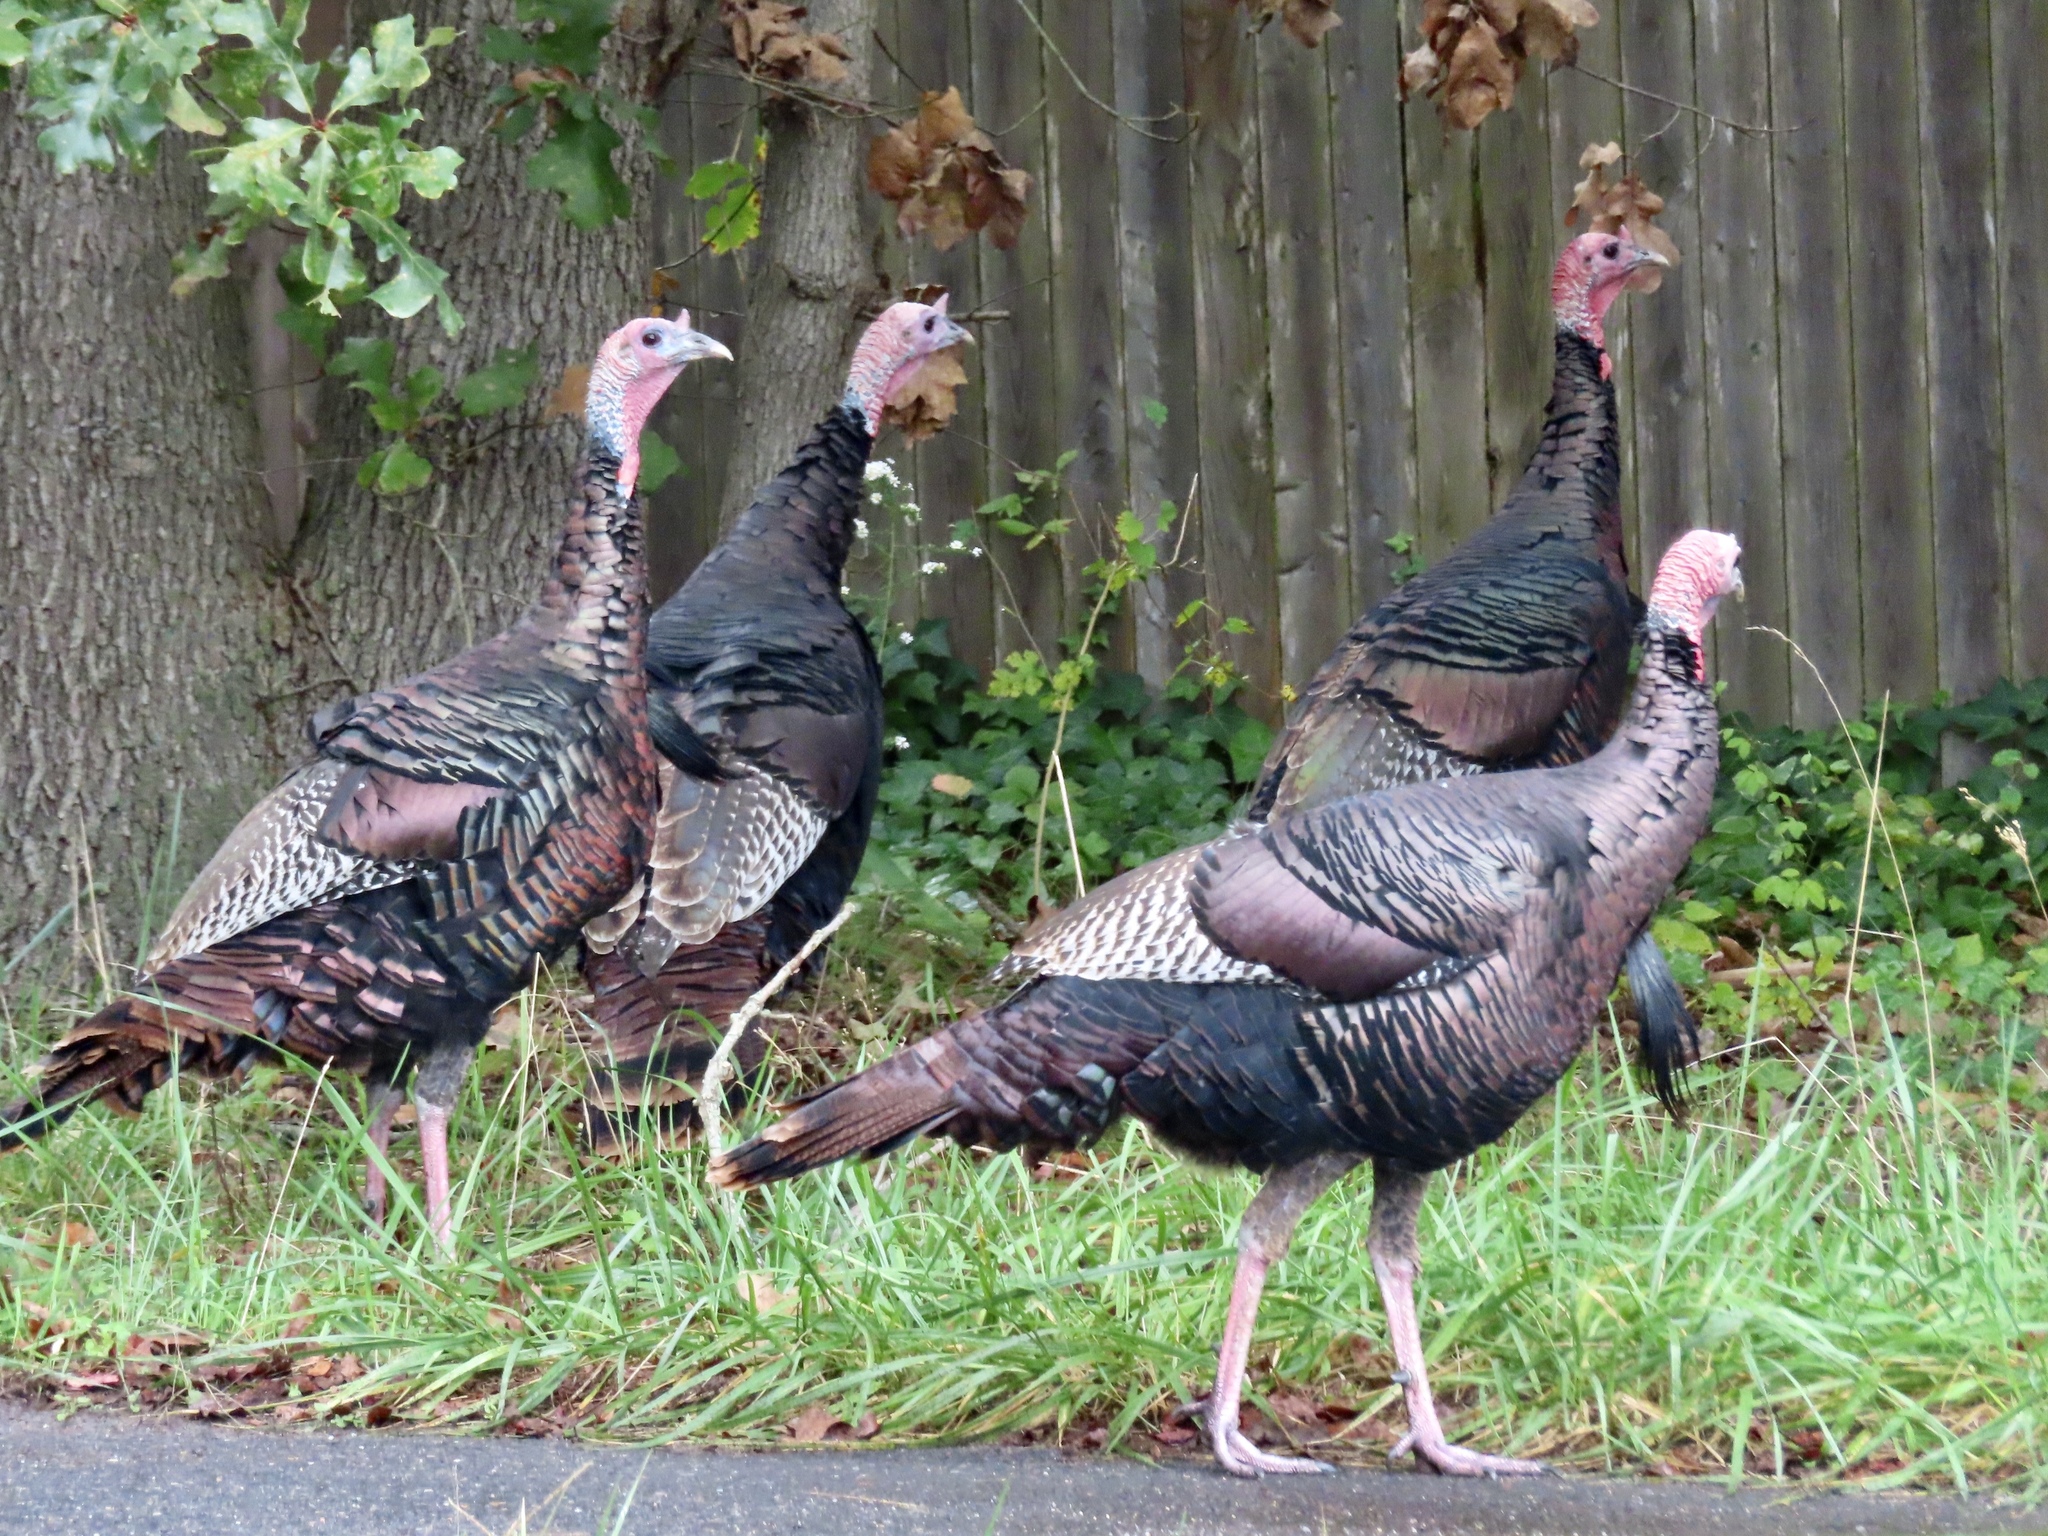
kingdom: Animalia
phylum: Chordata
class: Aves
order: Galliformes
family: Phasianidae
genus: Meleagris
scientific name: Meleagris gallopavo
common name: Wild turkey
